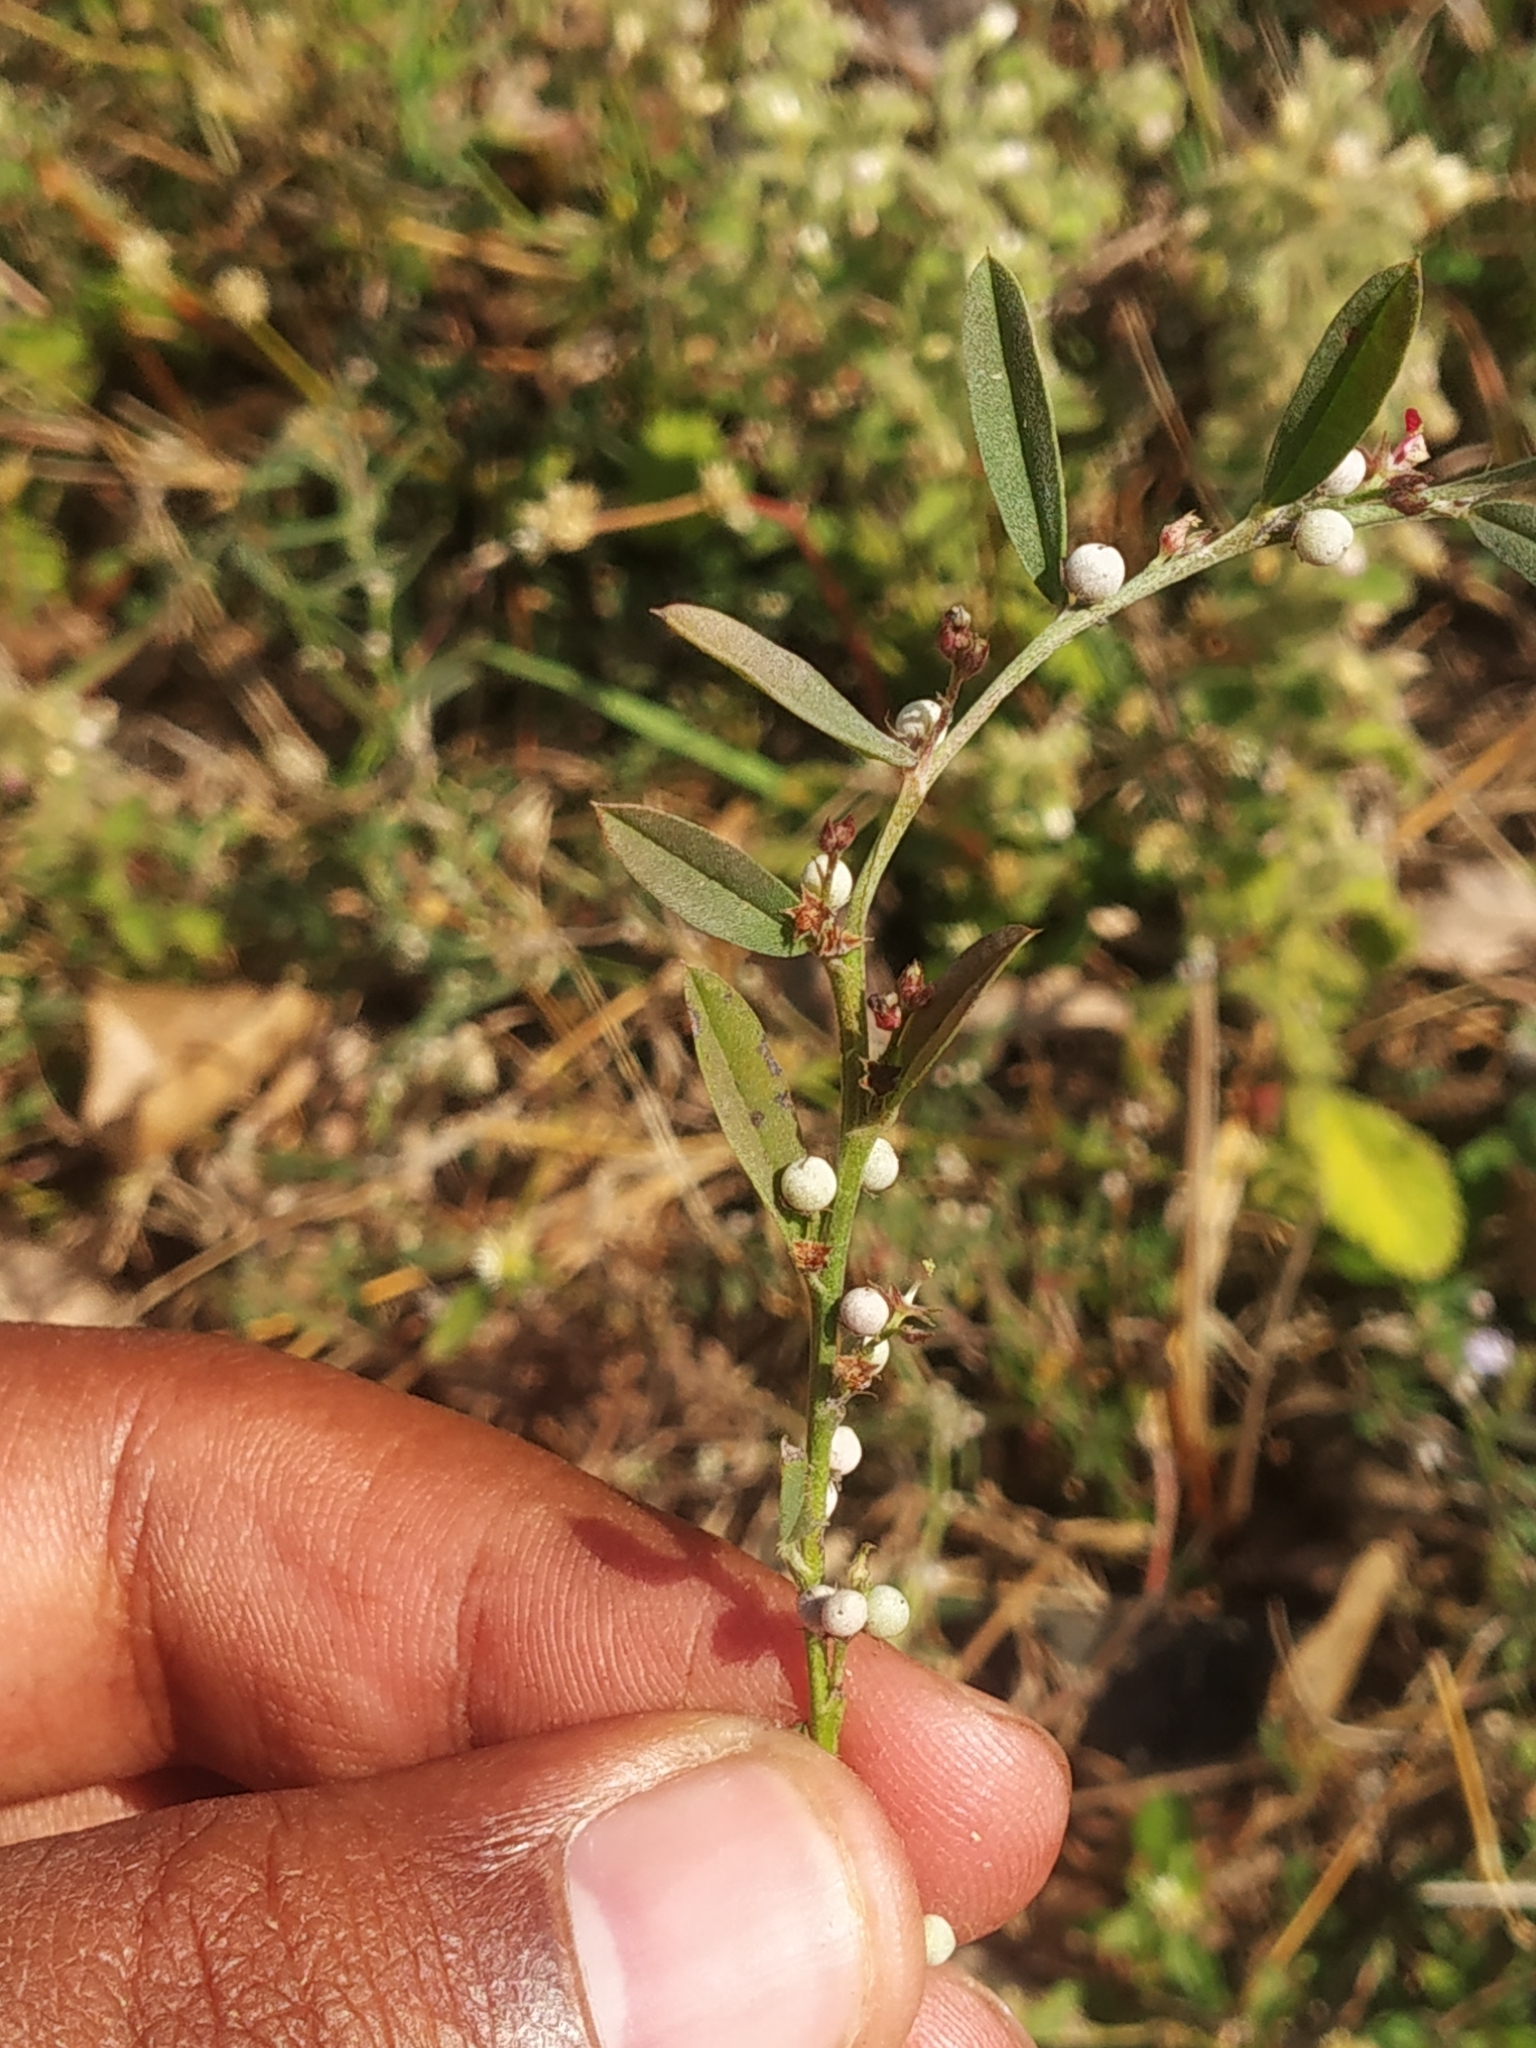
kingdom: Plantae
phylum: Tracheophyta
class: Magnoliopsida
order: Fabales
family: Fabaceae
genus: Indigofera
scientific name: Indigofera linifolia
